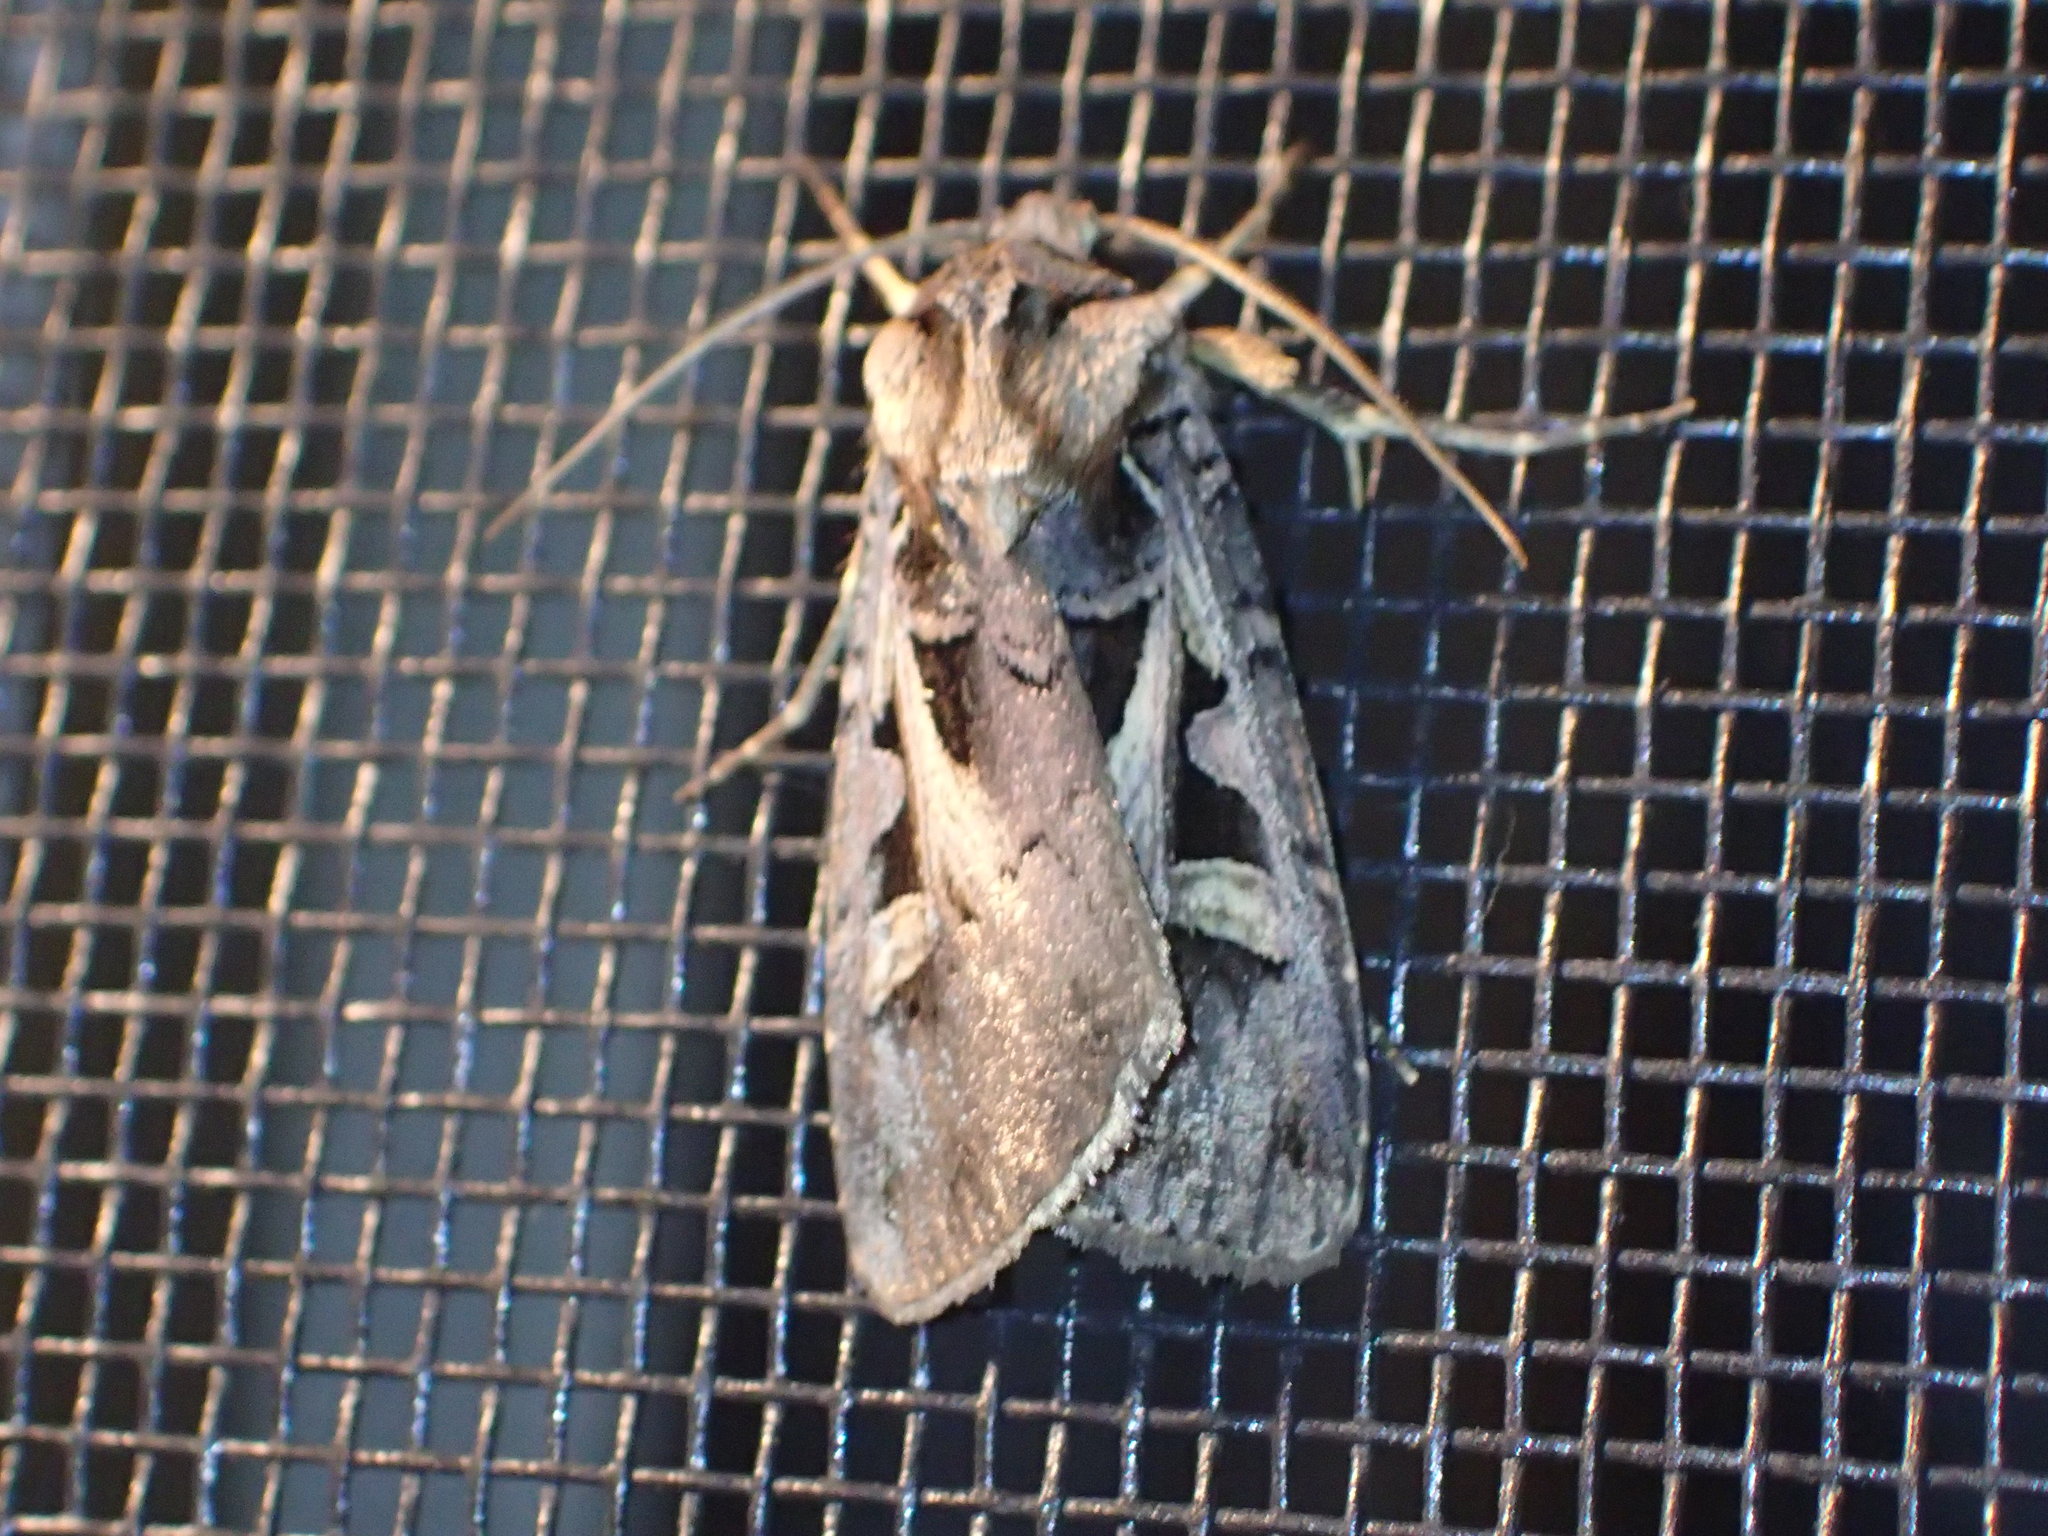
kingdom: Animalia
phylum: Arthropoda
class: Insecta
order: Lepidoptera
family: Noctuidae
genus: Feltia
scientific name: Feltia herilis
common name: Master's dart
